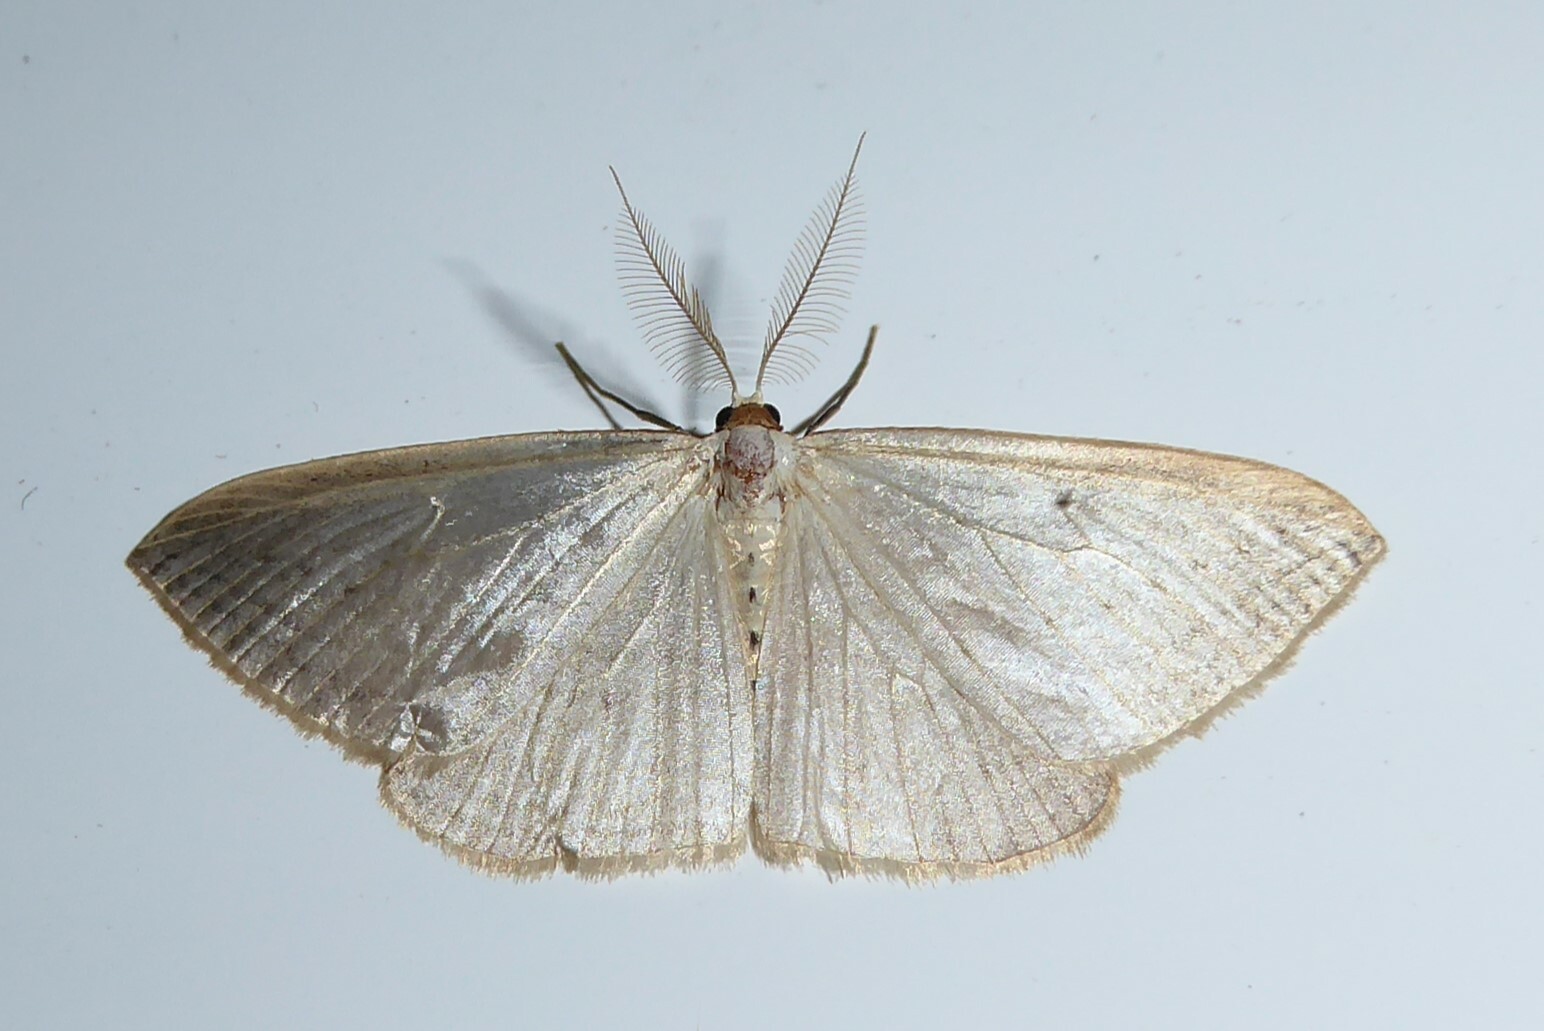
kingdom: Animalia
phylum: Arthropoda
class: Insecta
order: Lepidoptera
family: Geometridae
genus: Orthoclydon
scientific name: Orthoclydon praefectata
